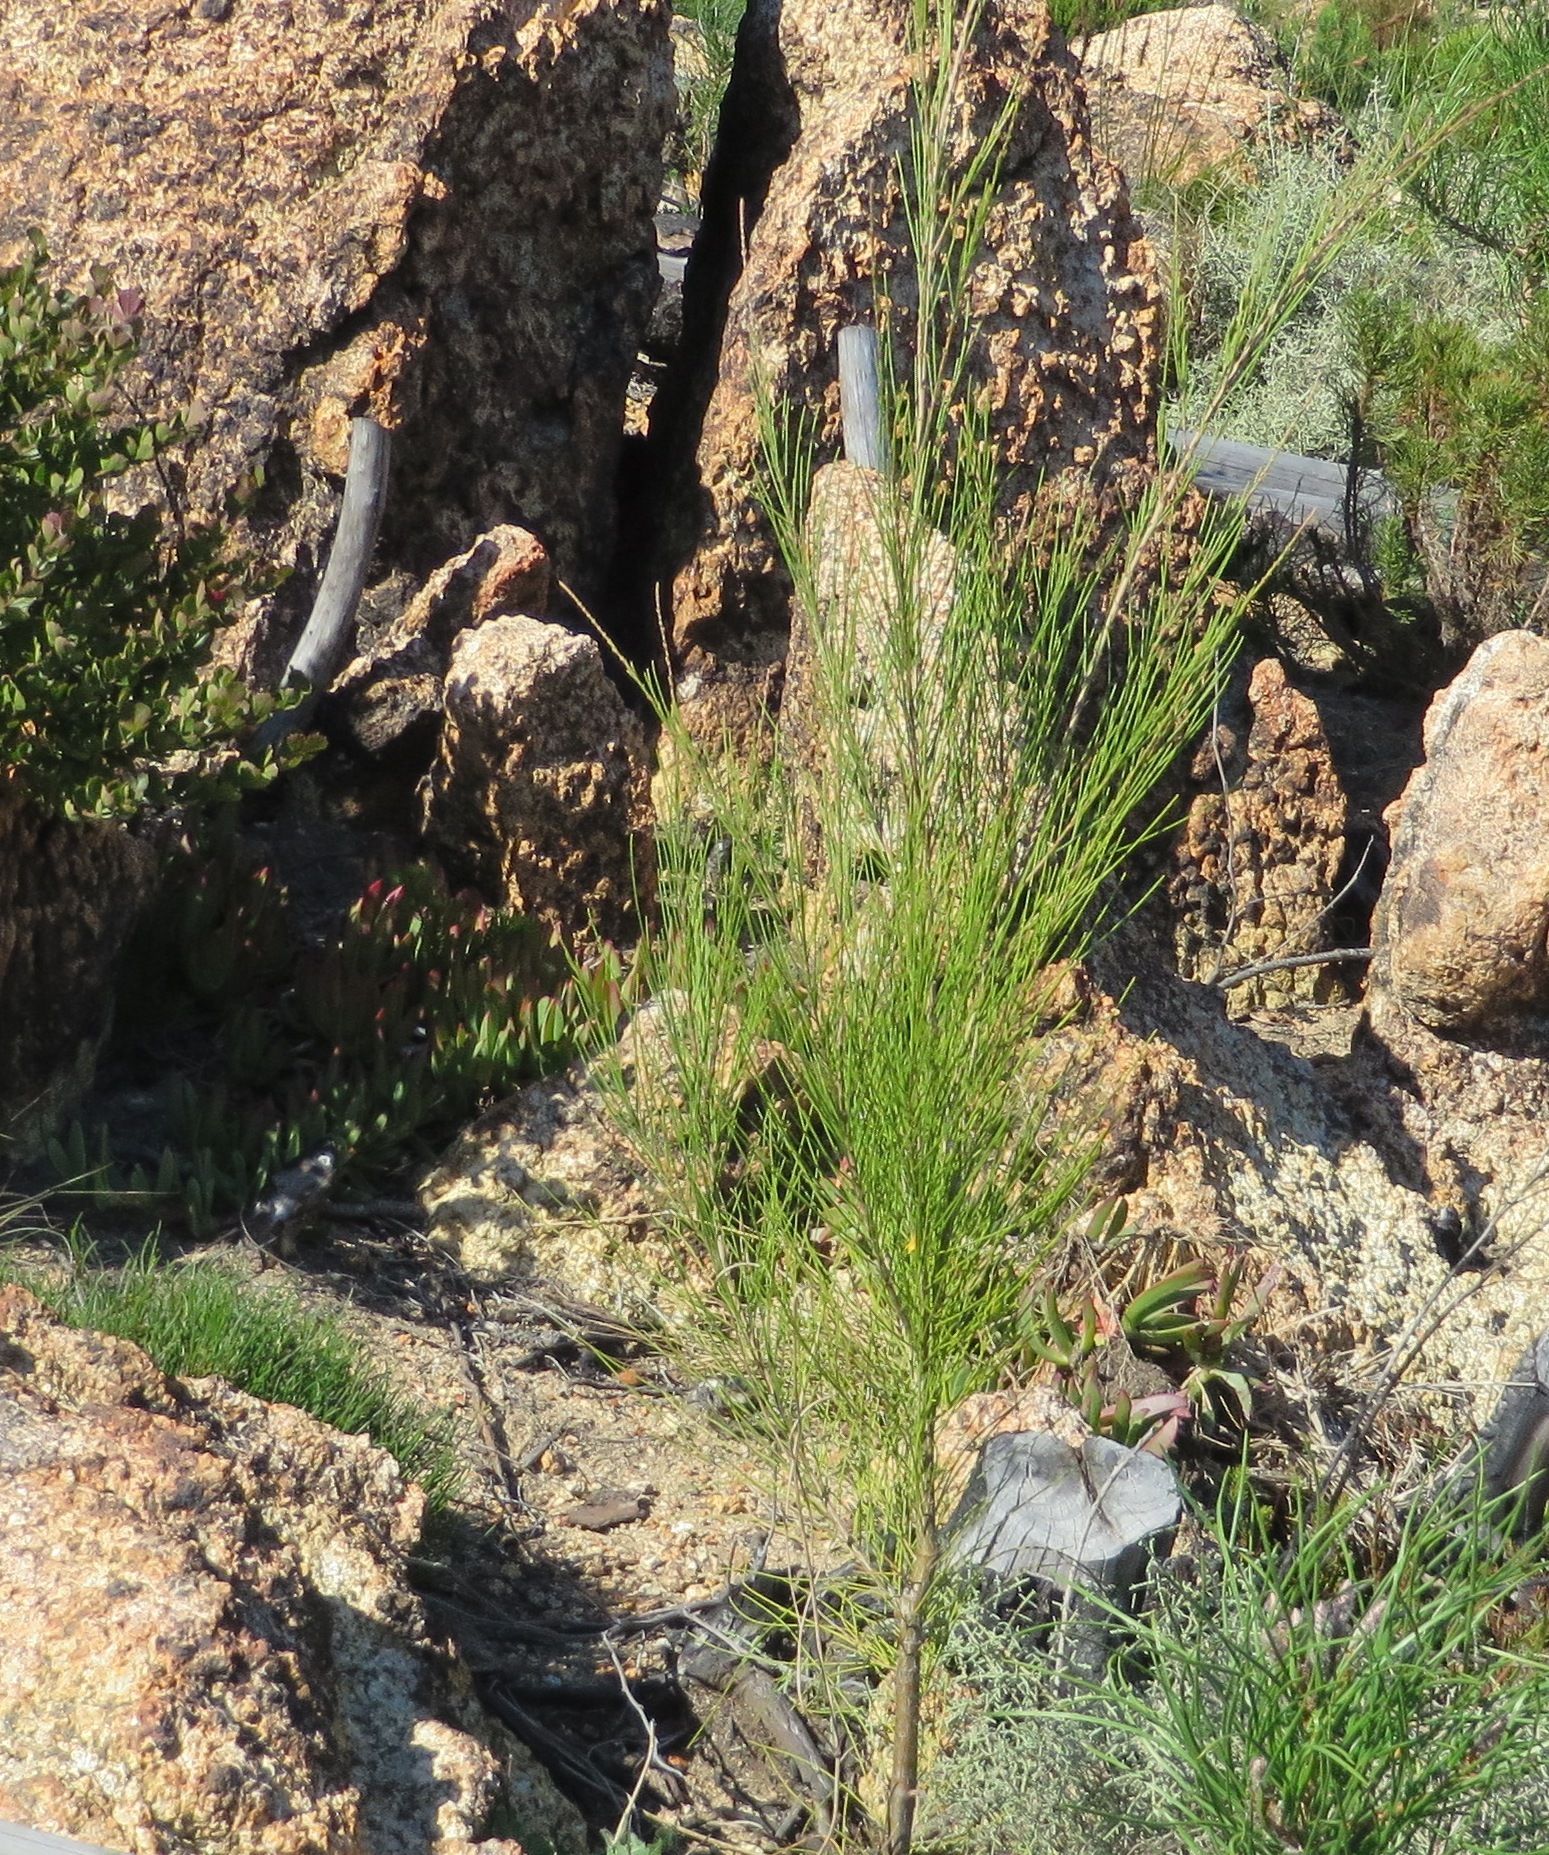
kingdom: Plantae
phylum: Tracheophyta
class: Magnoliopsida
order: Fagales
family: Casuarinaceae
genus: Casuarina
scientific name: Casuarina cunninghamiana
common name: River sheoak
